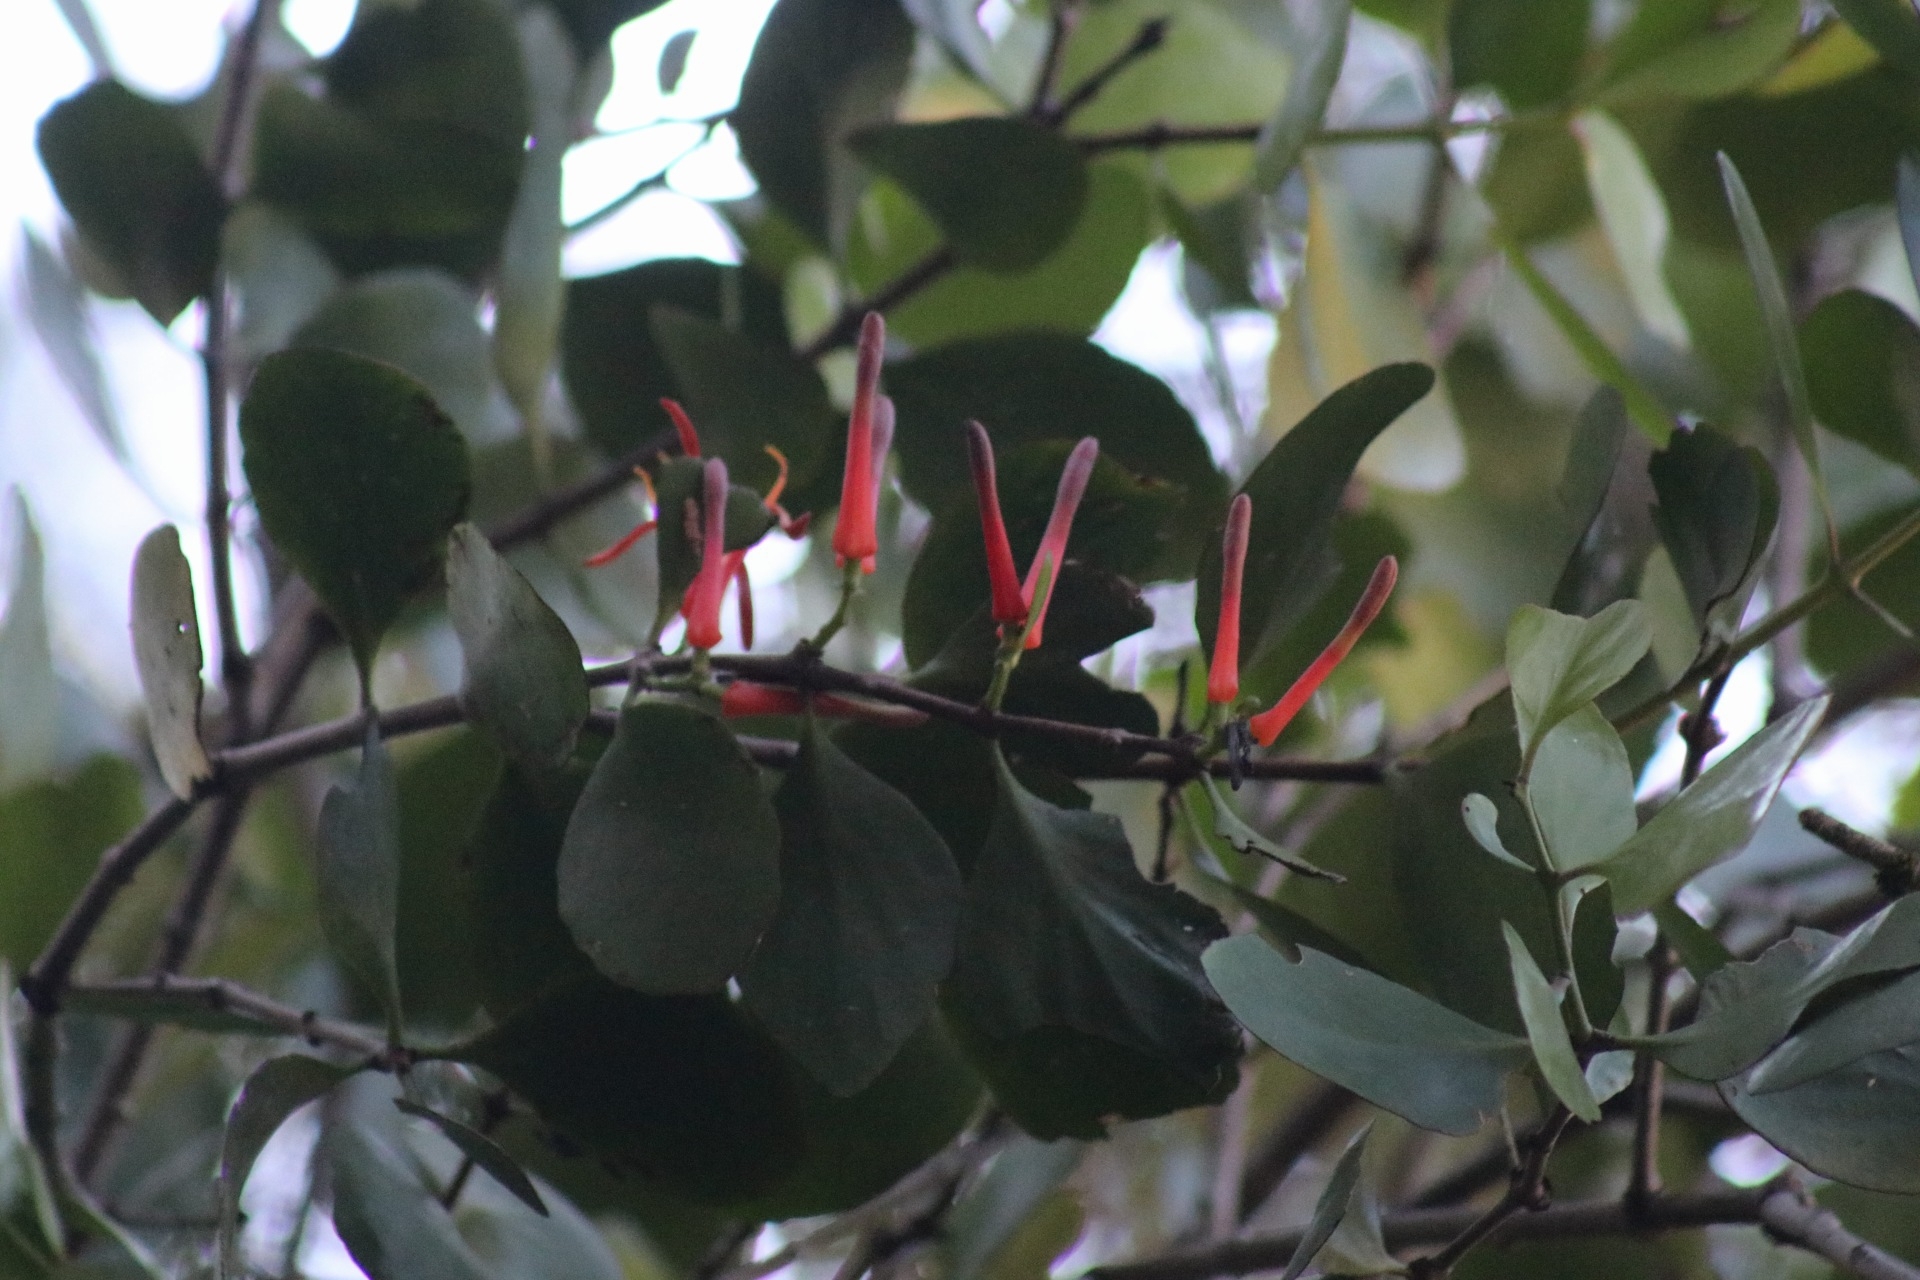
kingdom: Plantae
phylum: Tracheophyta
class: Magnoliopsida
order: Santalales
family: Loranthaceae
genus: Peraxilla
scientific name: Peraxilla colensoi
